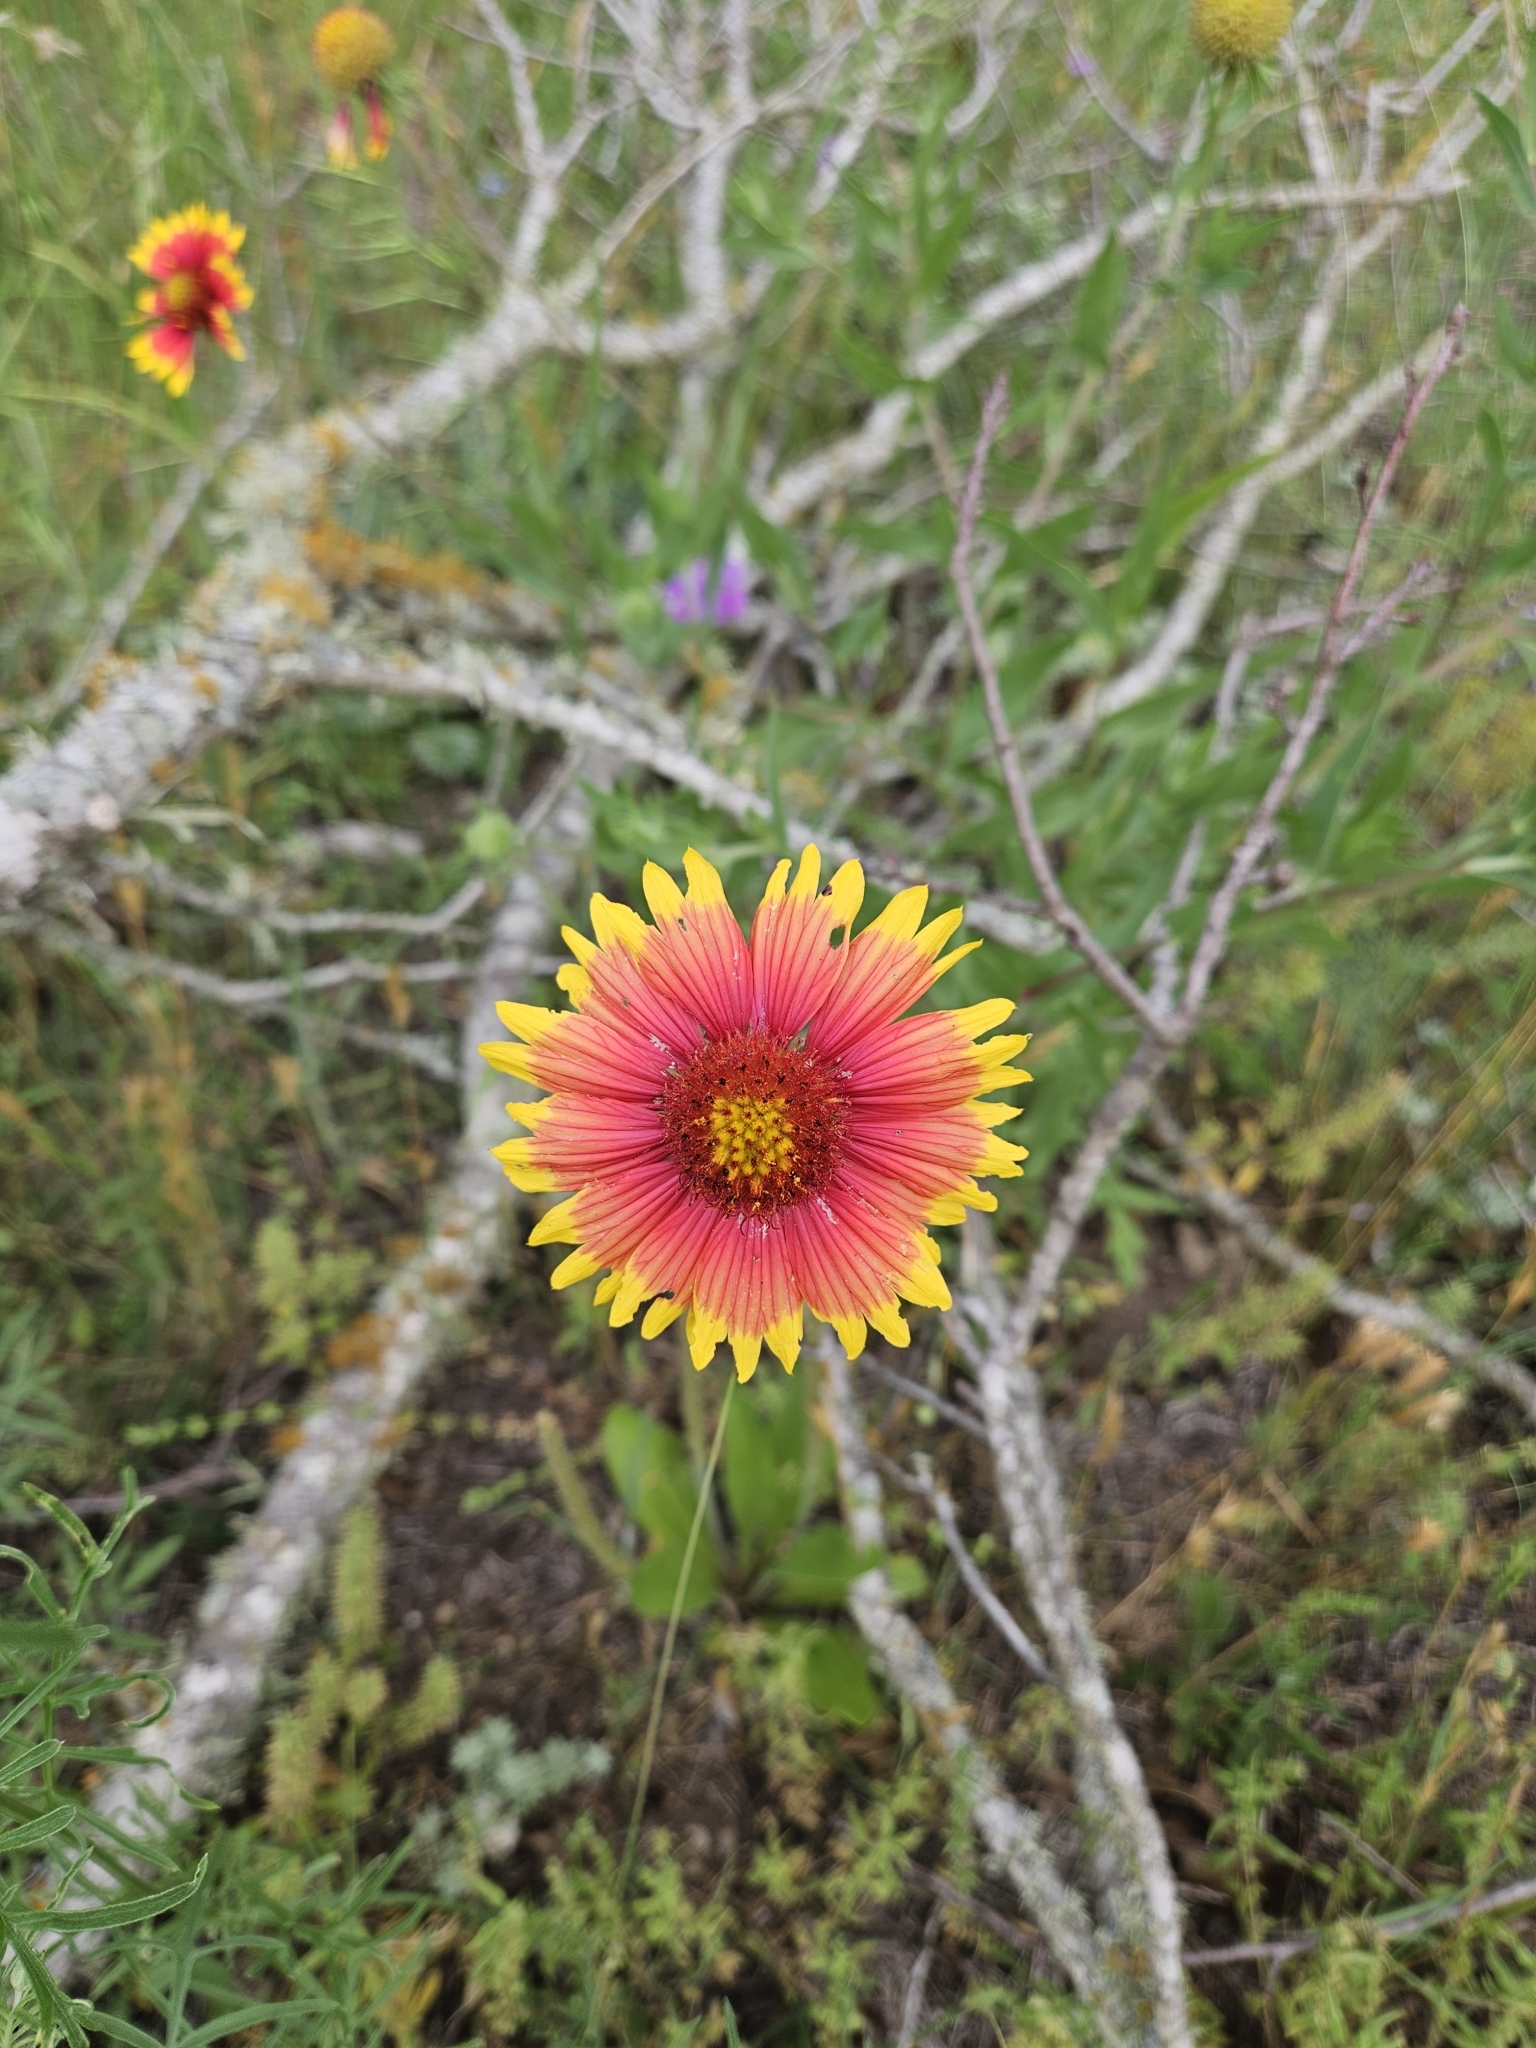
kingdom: Plantae
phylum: Tracheophyta
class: Magnoliopsida
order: Asterales
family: Asteraceae
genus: Gaillardia
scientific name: Gaillardia pulchella
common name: Firewheel
